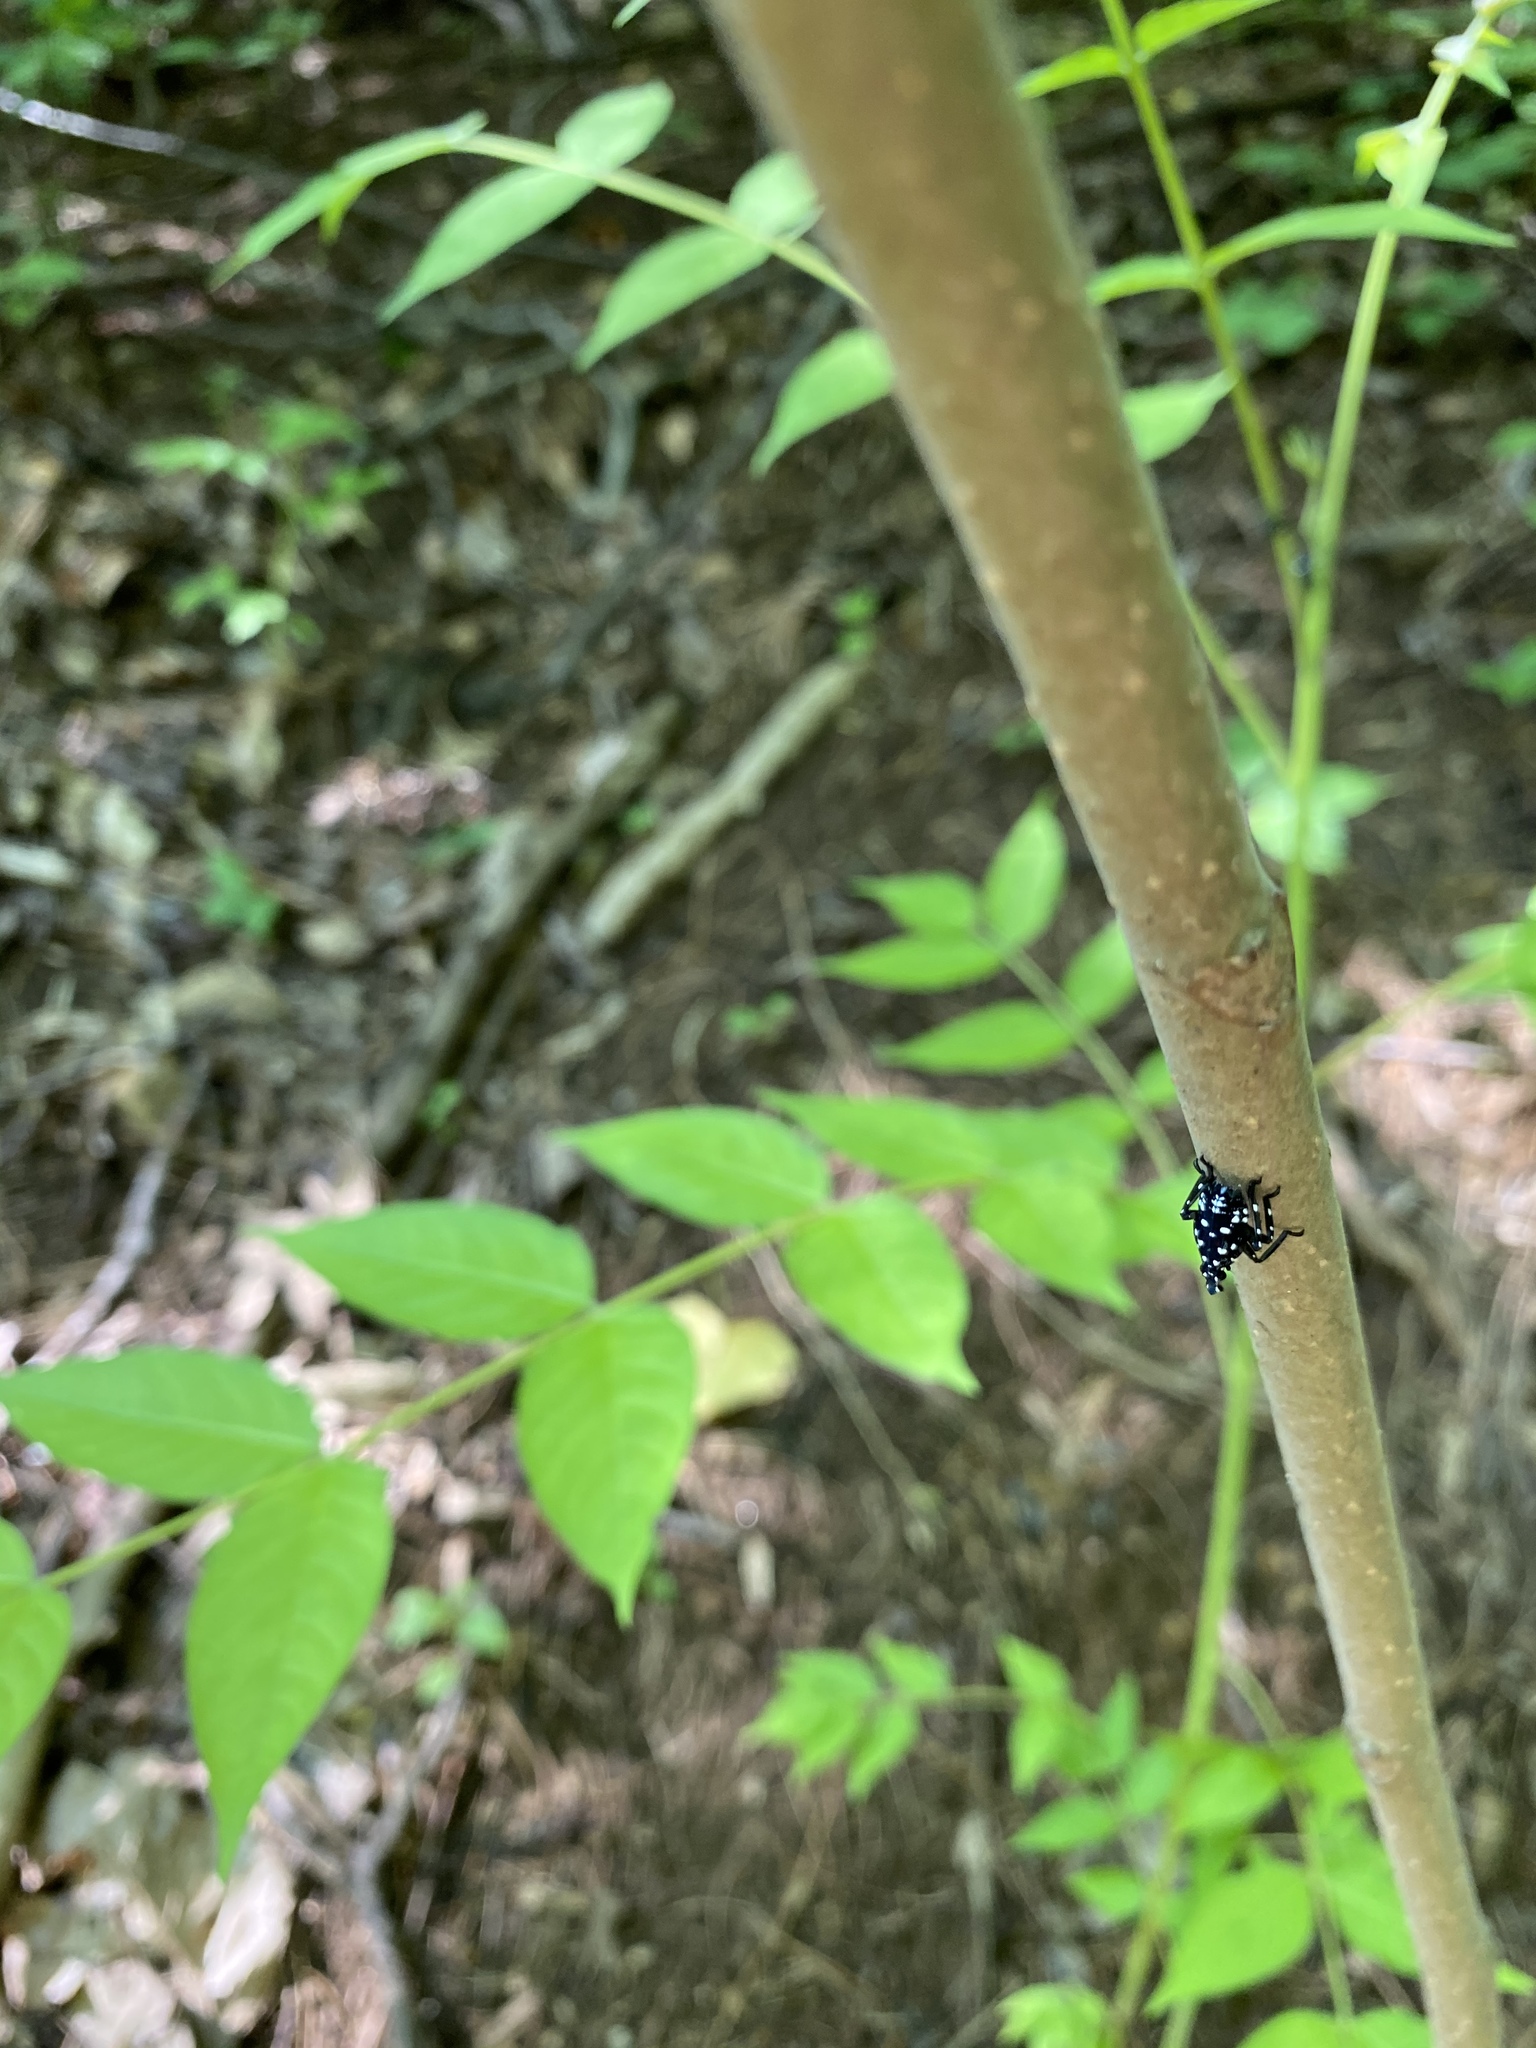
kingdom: Animalia
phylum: Arthropoda
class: Insecta
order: Hemiptera
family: Fulgoridae
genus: Lycorma
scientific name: Lycorma delicatula
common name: Spotted lanternfly
